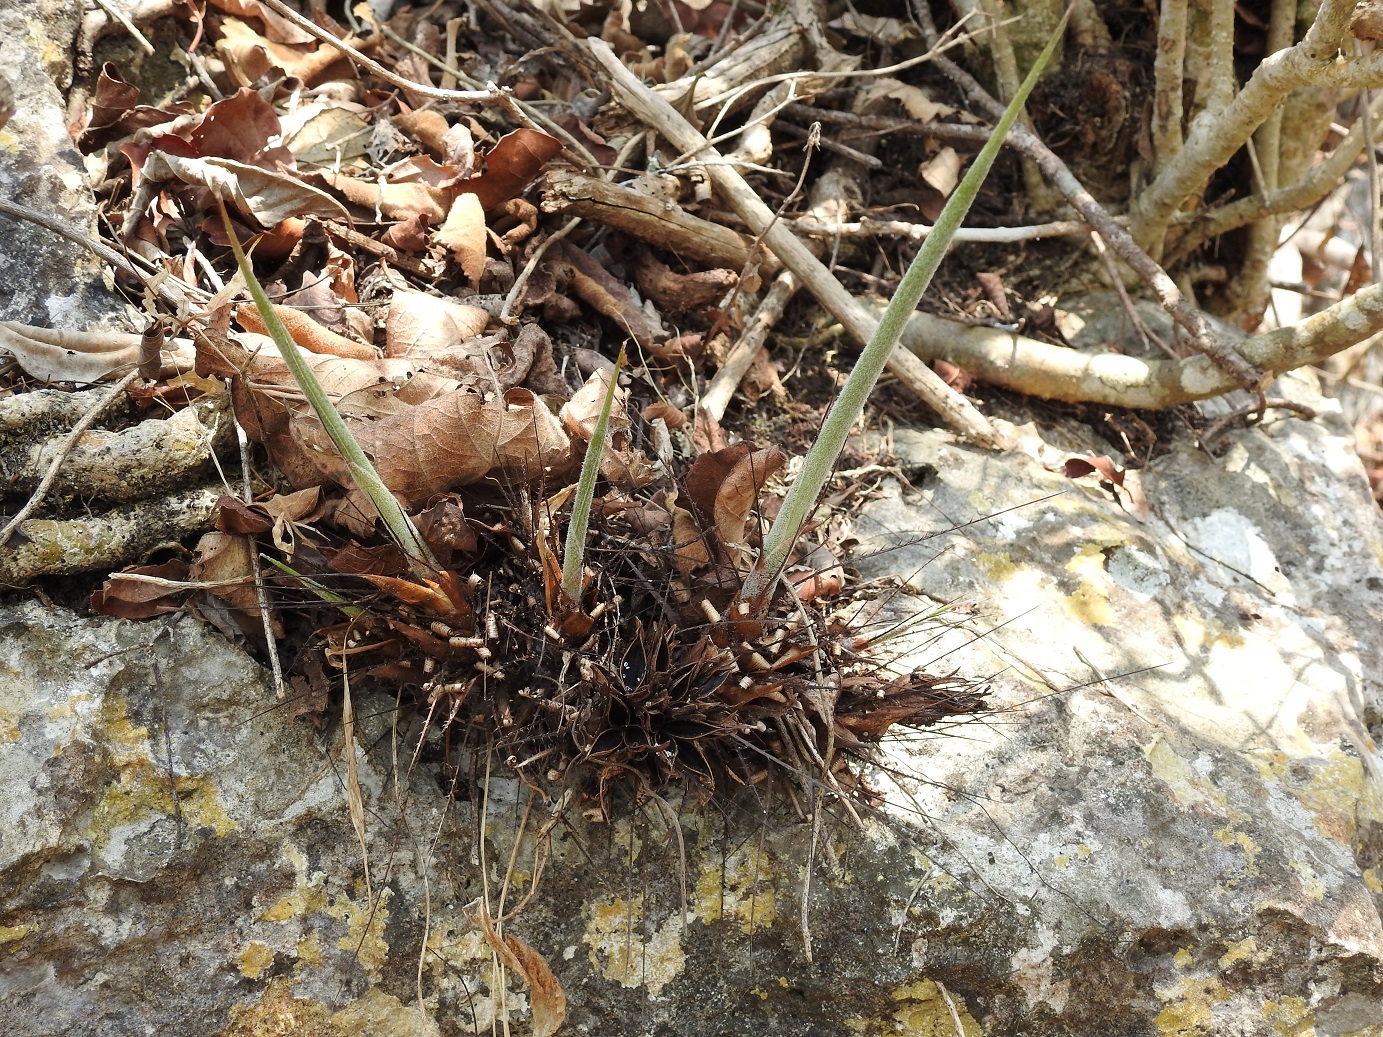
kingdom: Plantae
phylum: Tracheophyta
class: Liliopsida
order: Poales
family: Bromeliaceae
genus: Pitcairnia
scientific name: Pitcairnia heterophylla
